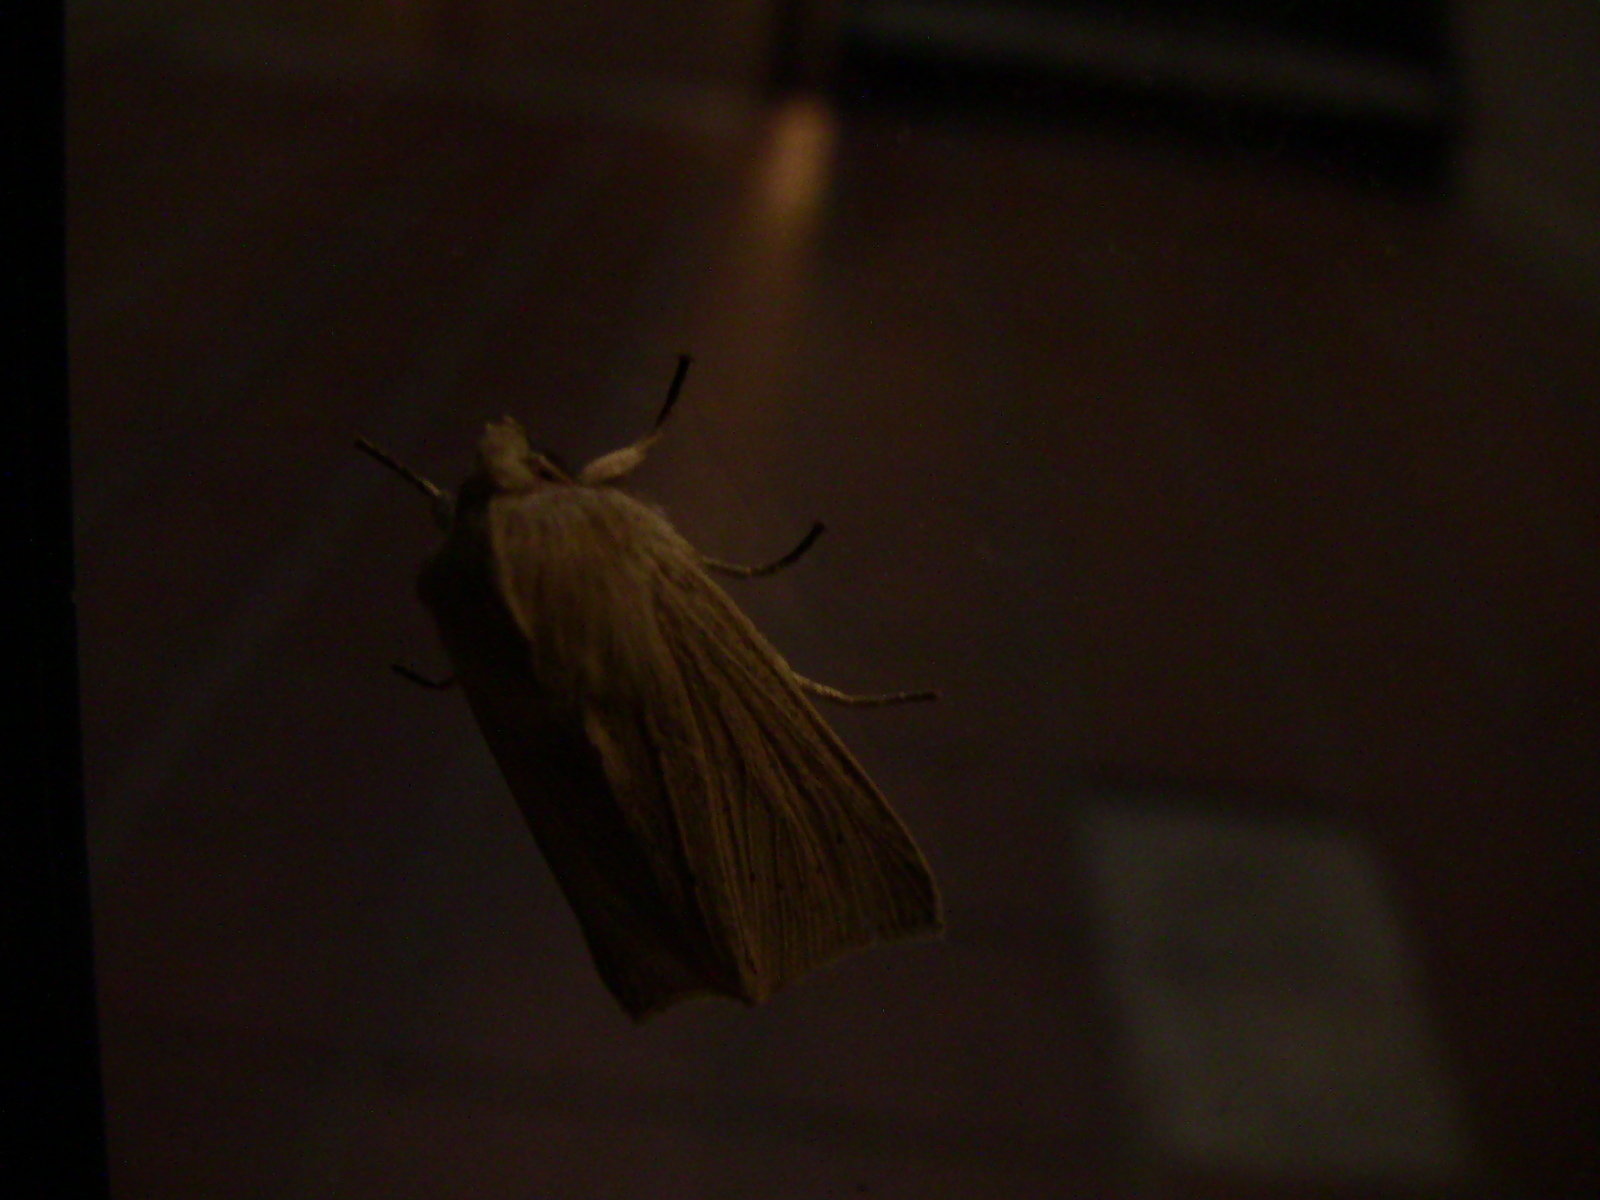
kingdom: Animalia
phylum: Arthropoda
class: Insecta
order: Lepidoptera
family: Noctuidae
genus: Mythimna
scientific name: Mythimna oxygala
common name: Lesser wainscot
